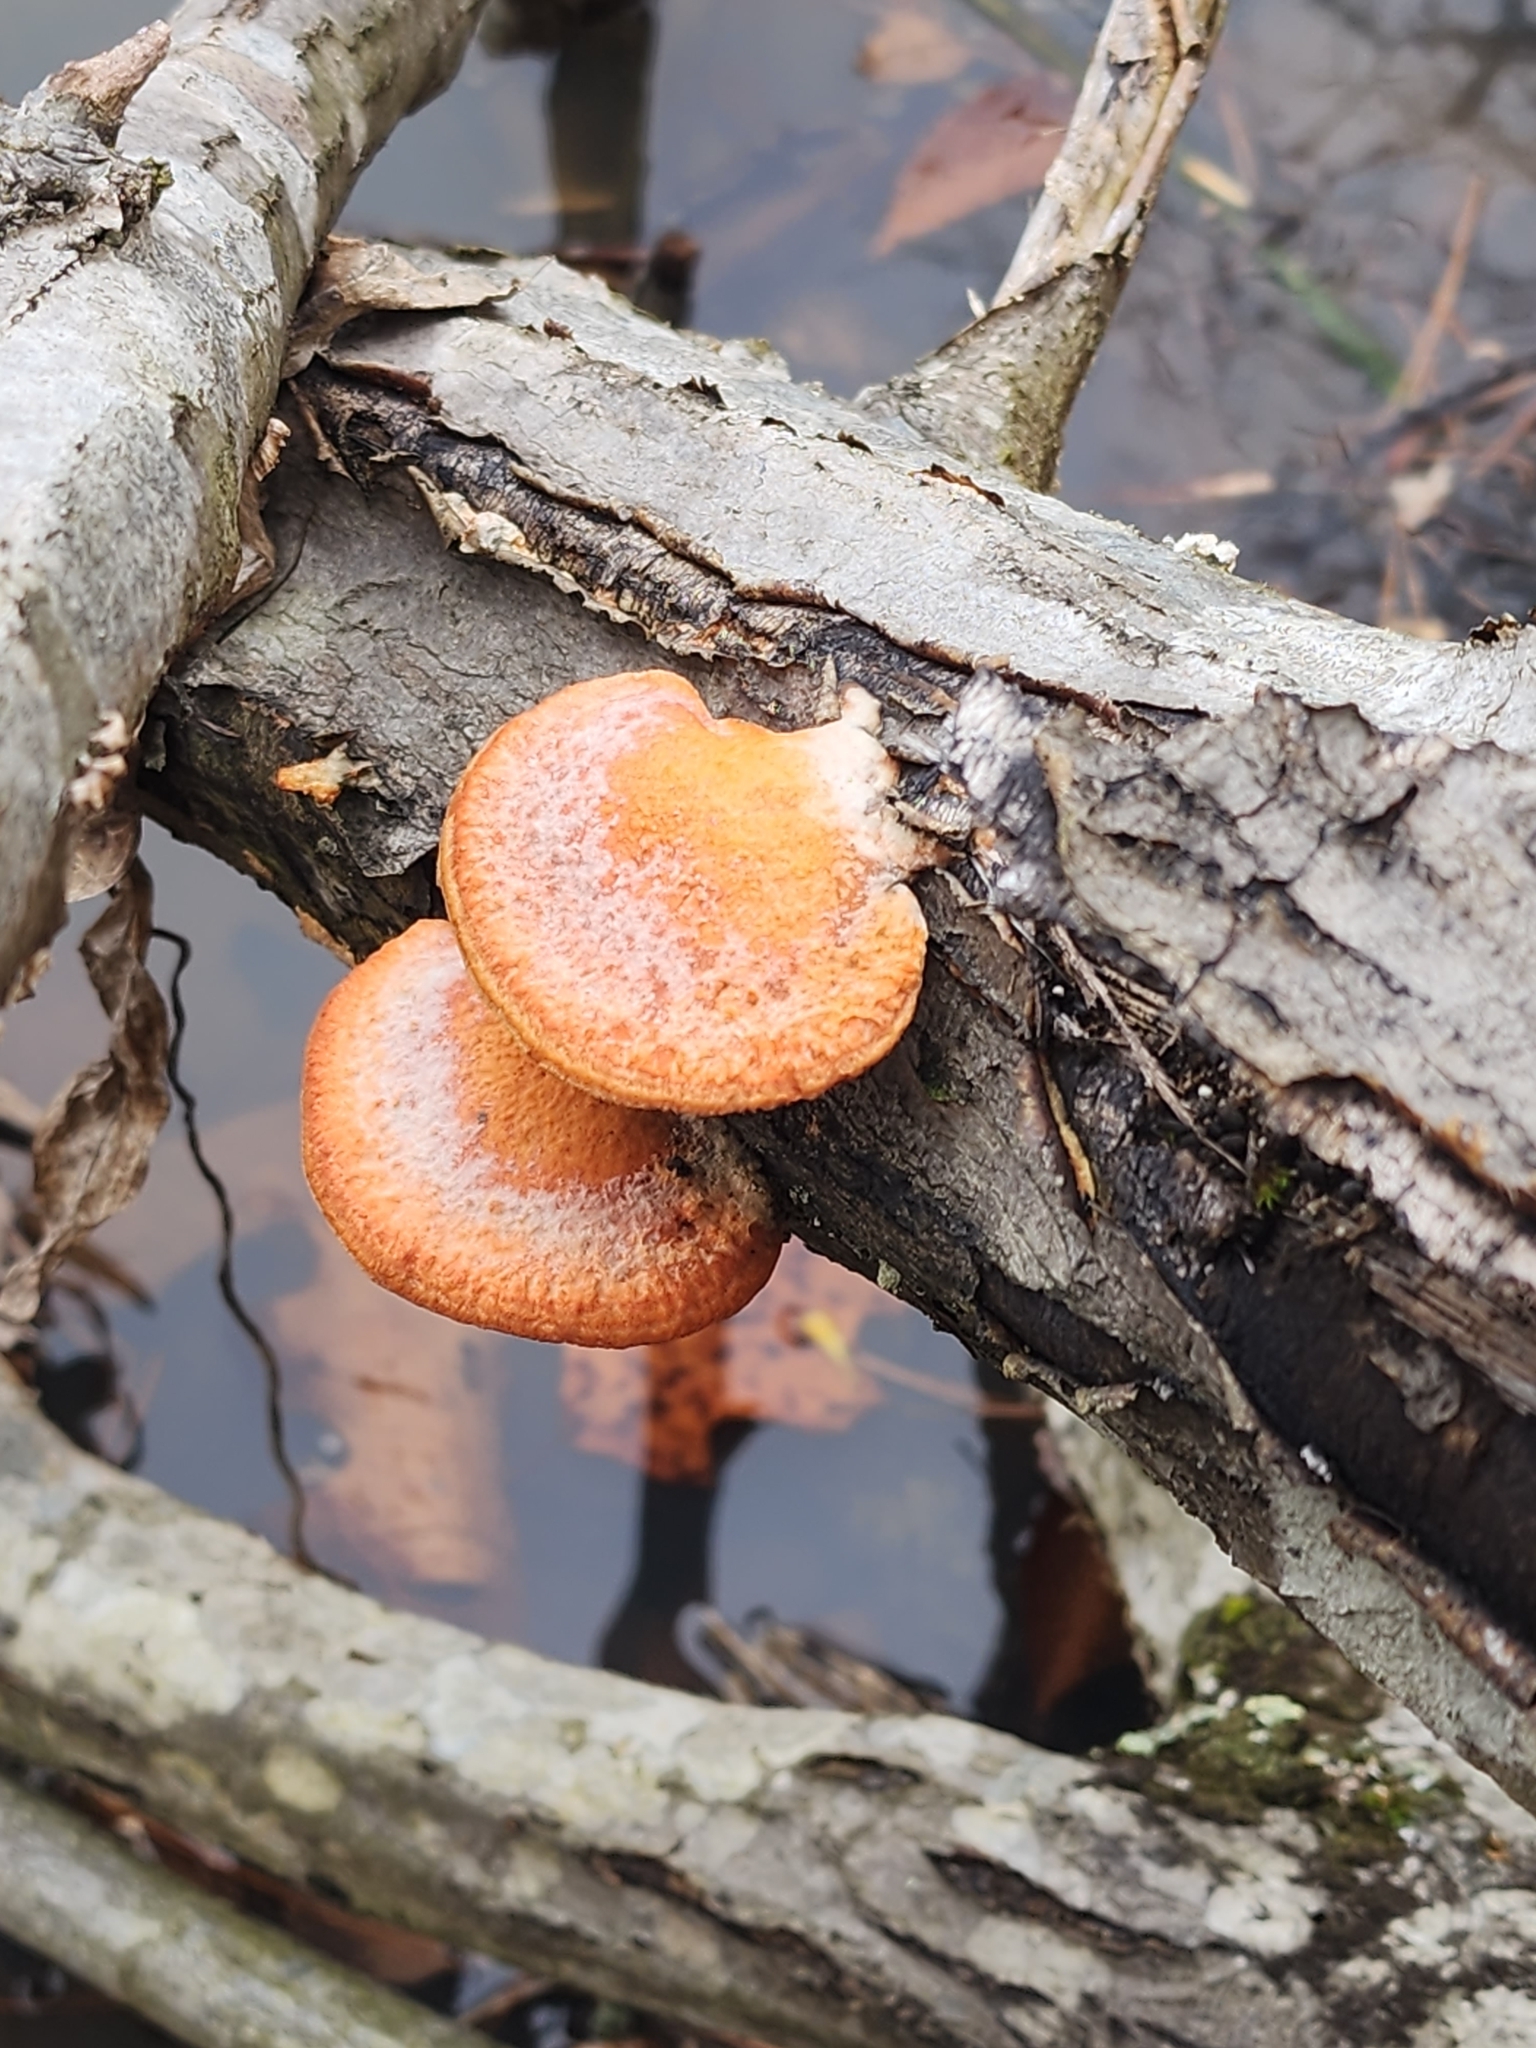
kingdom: Fungi
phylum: Basidiomycota
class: Agaricomycetes
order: Polyporales
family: Polyporaceae
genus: Trametes
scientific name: Trametes cinnabarina
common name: Northern cinnabar polypore
